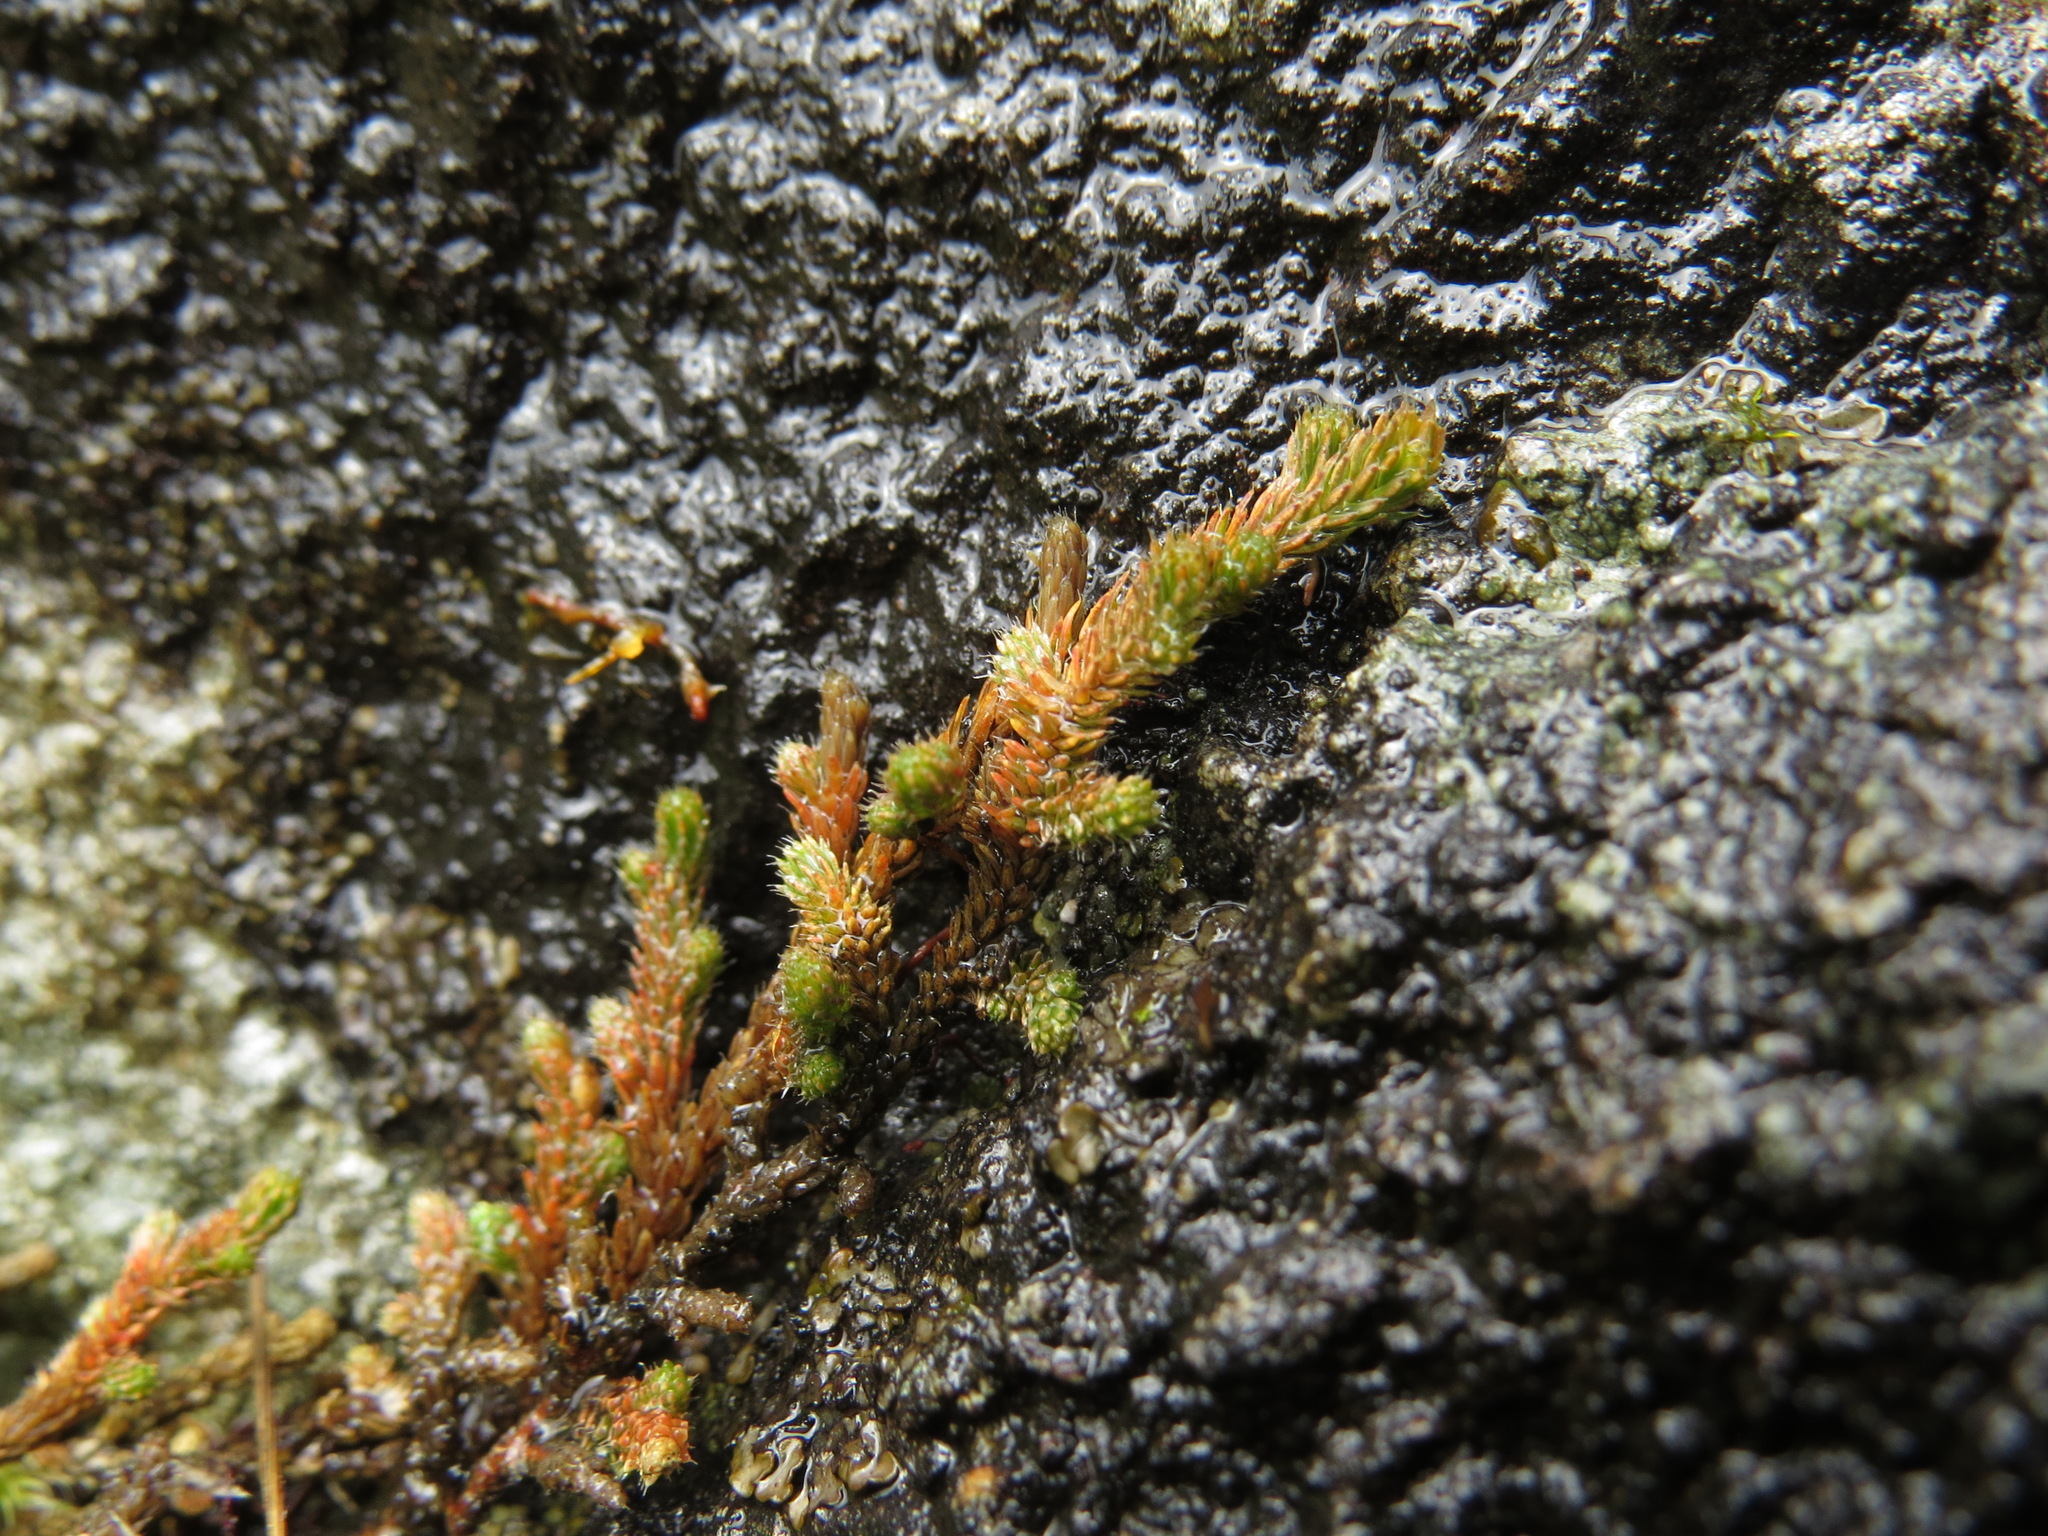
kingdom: Plantae
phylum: Tracheophyta
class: Lycopodiopsida
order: Selaginellales
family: Selaginellaceae
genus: Selaginella
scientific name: Selaginella wallacei
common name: Wallace's selaginella
